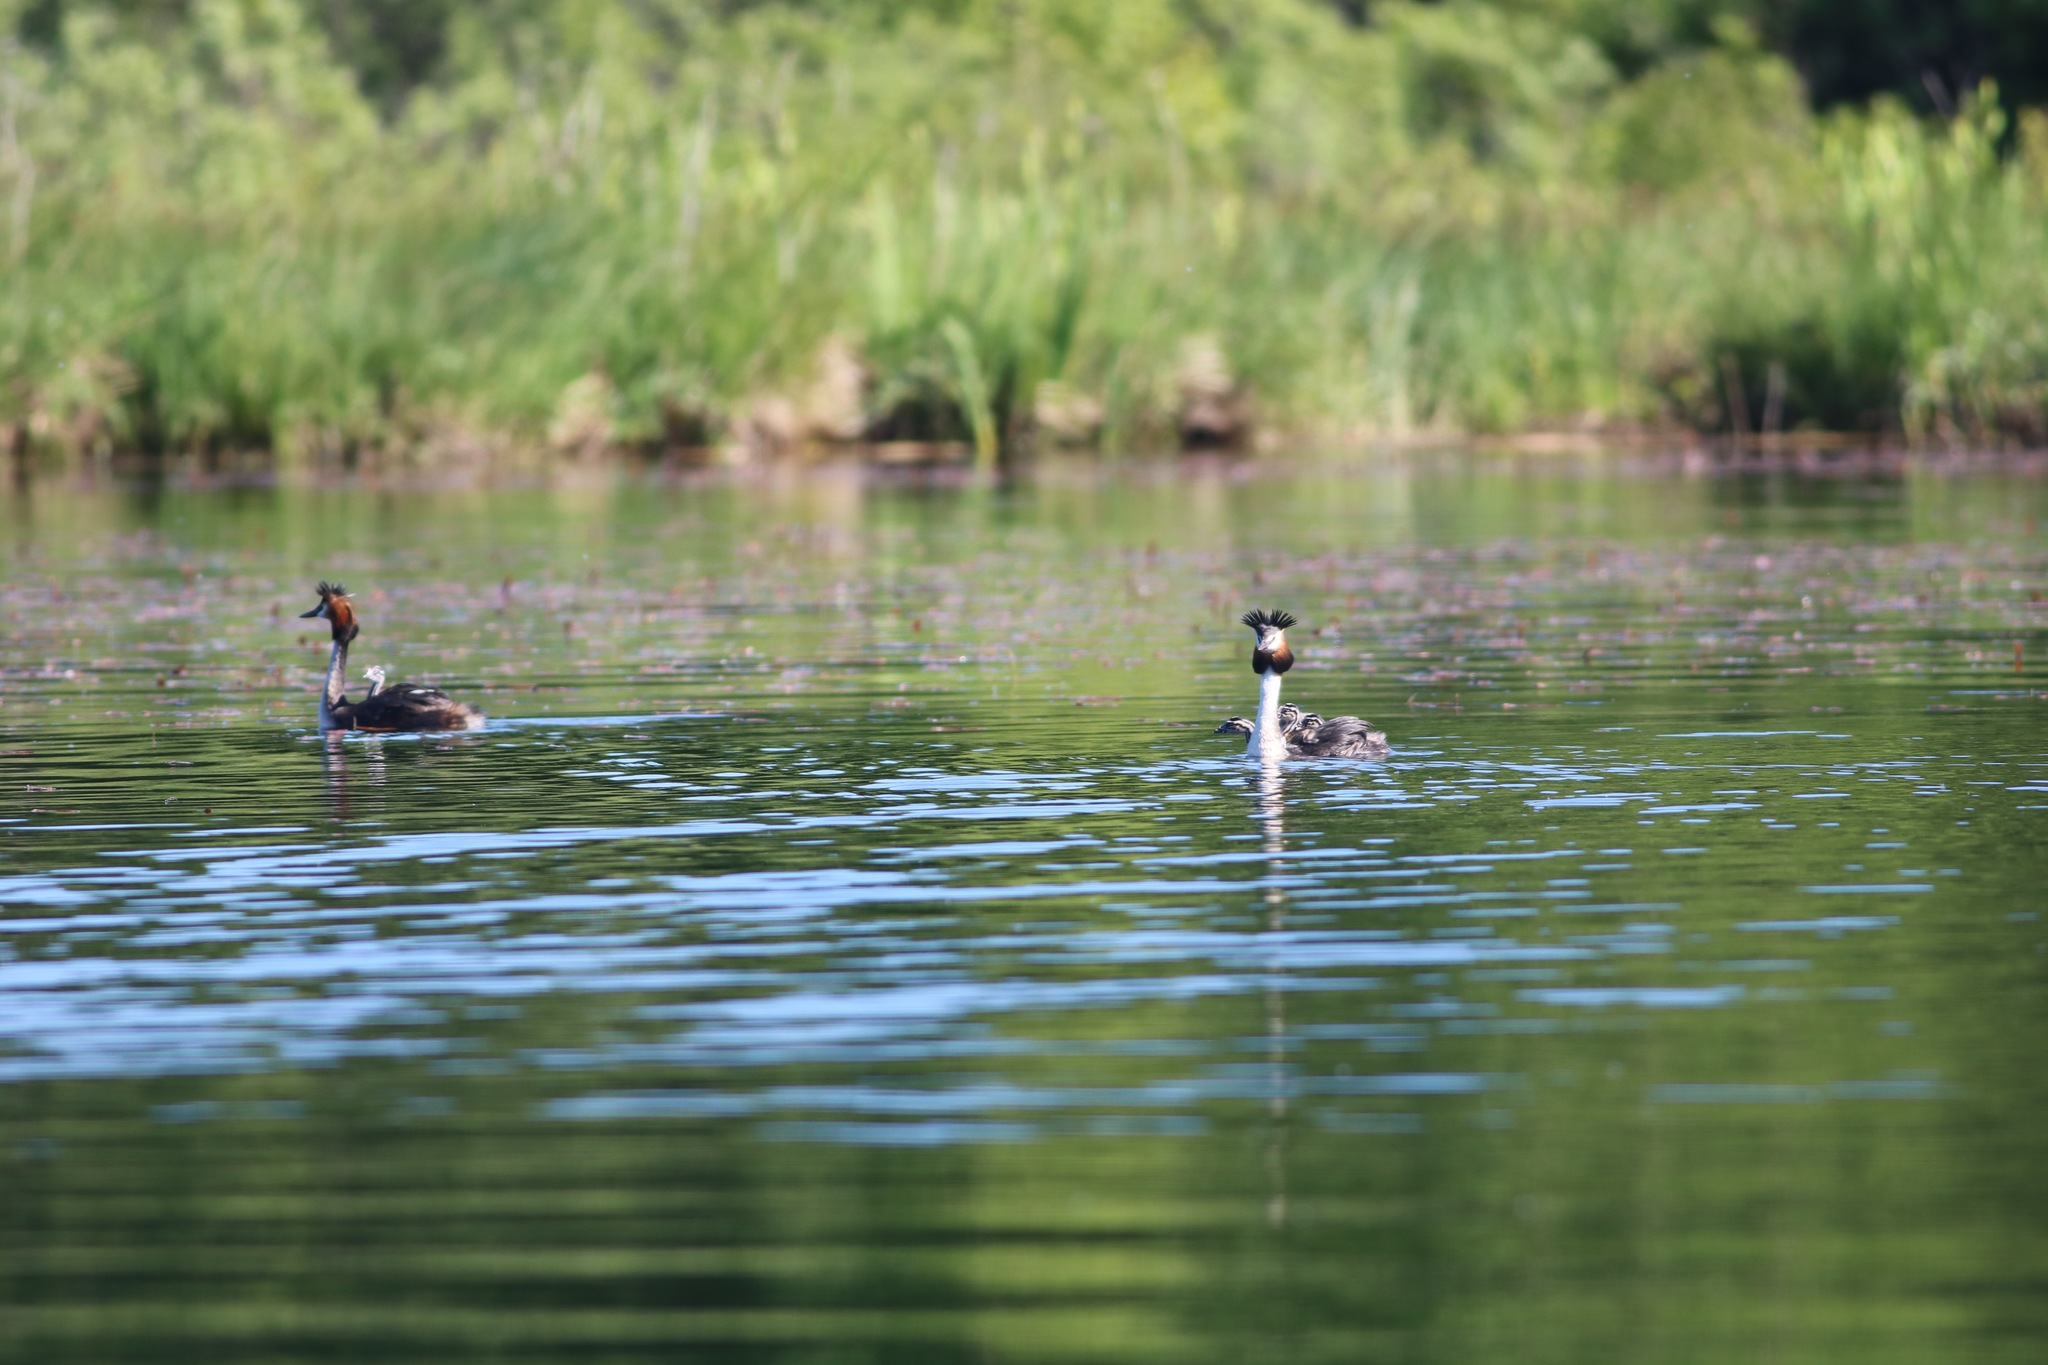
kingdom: Animalia
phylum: Chordata
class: Aves
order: Podicipediformes
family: Podicipedidae
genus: Podiceps
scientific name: Podiceps cristatus
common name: Great crested grebe
